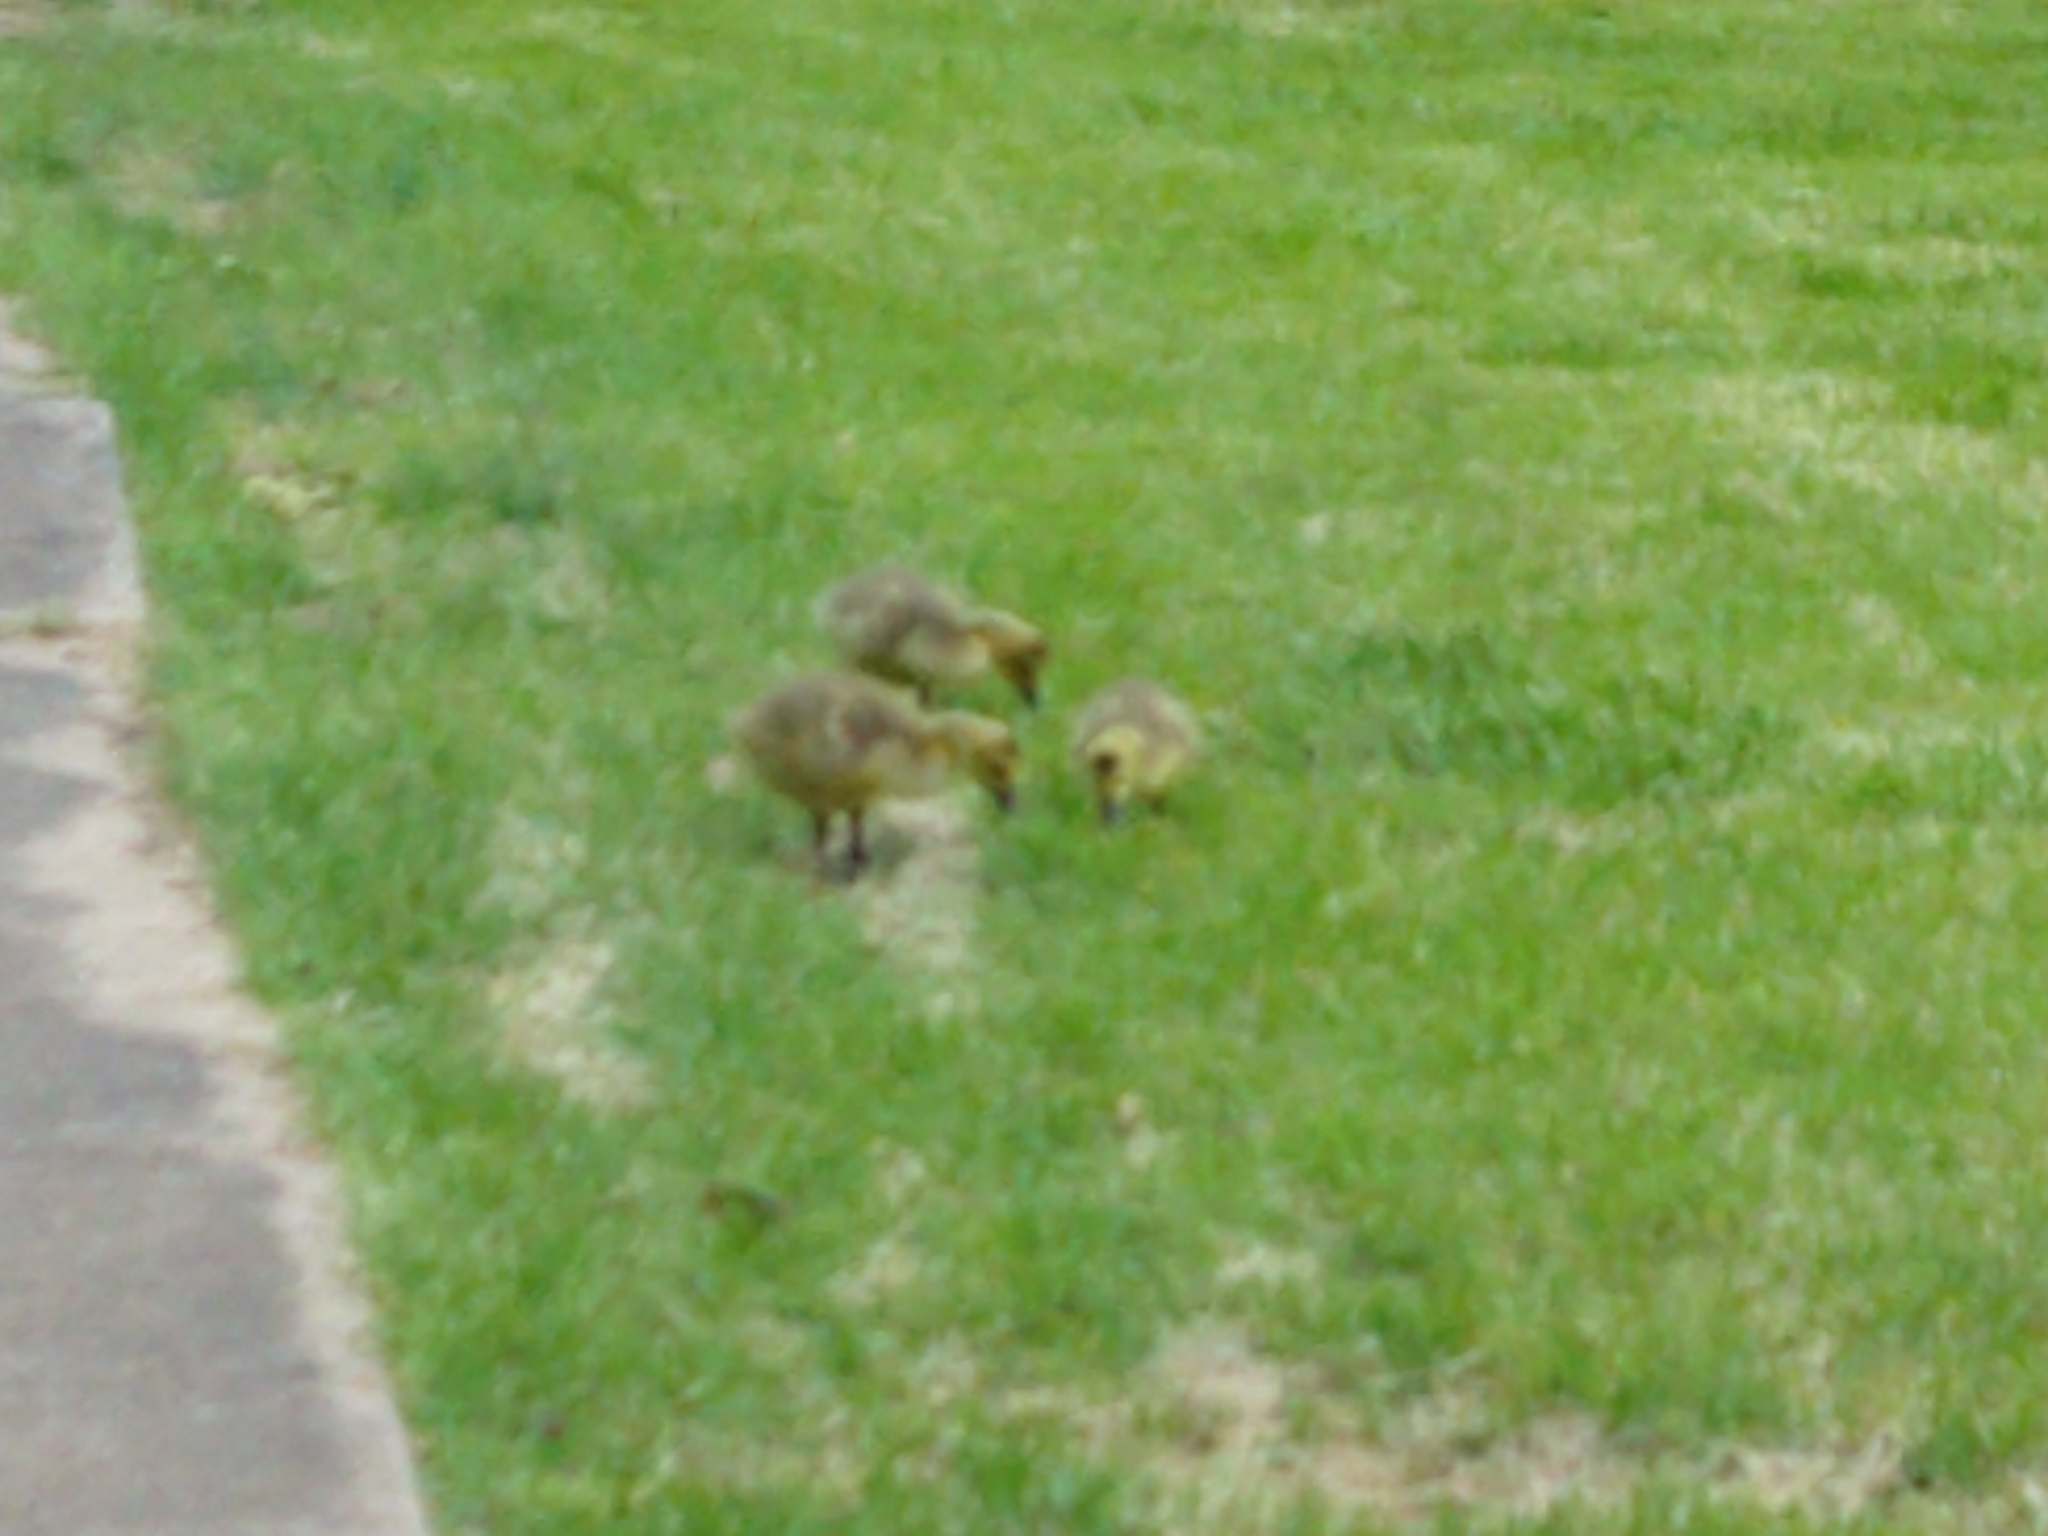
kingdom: Animalia
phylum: Chordata
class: Aves
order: Anseriformes
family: Anatidae
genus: Branta
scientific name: Branta canadensis
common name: Canada goose
